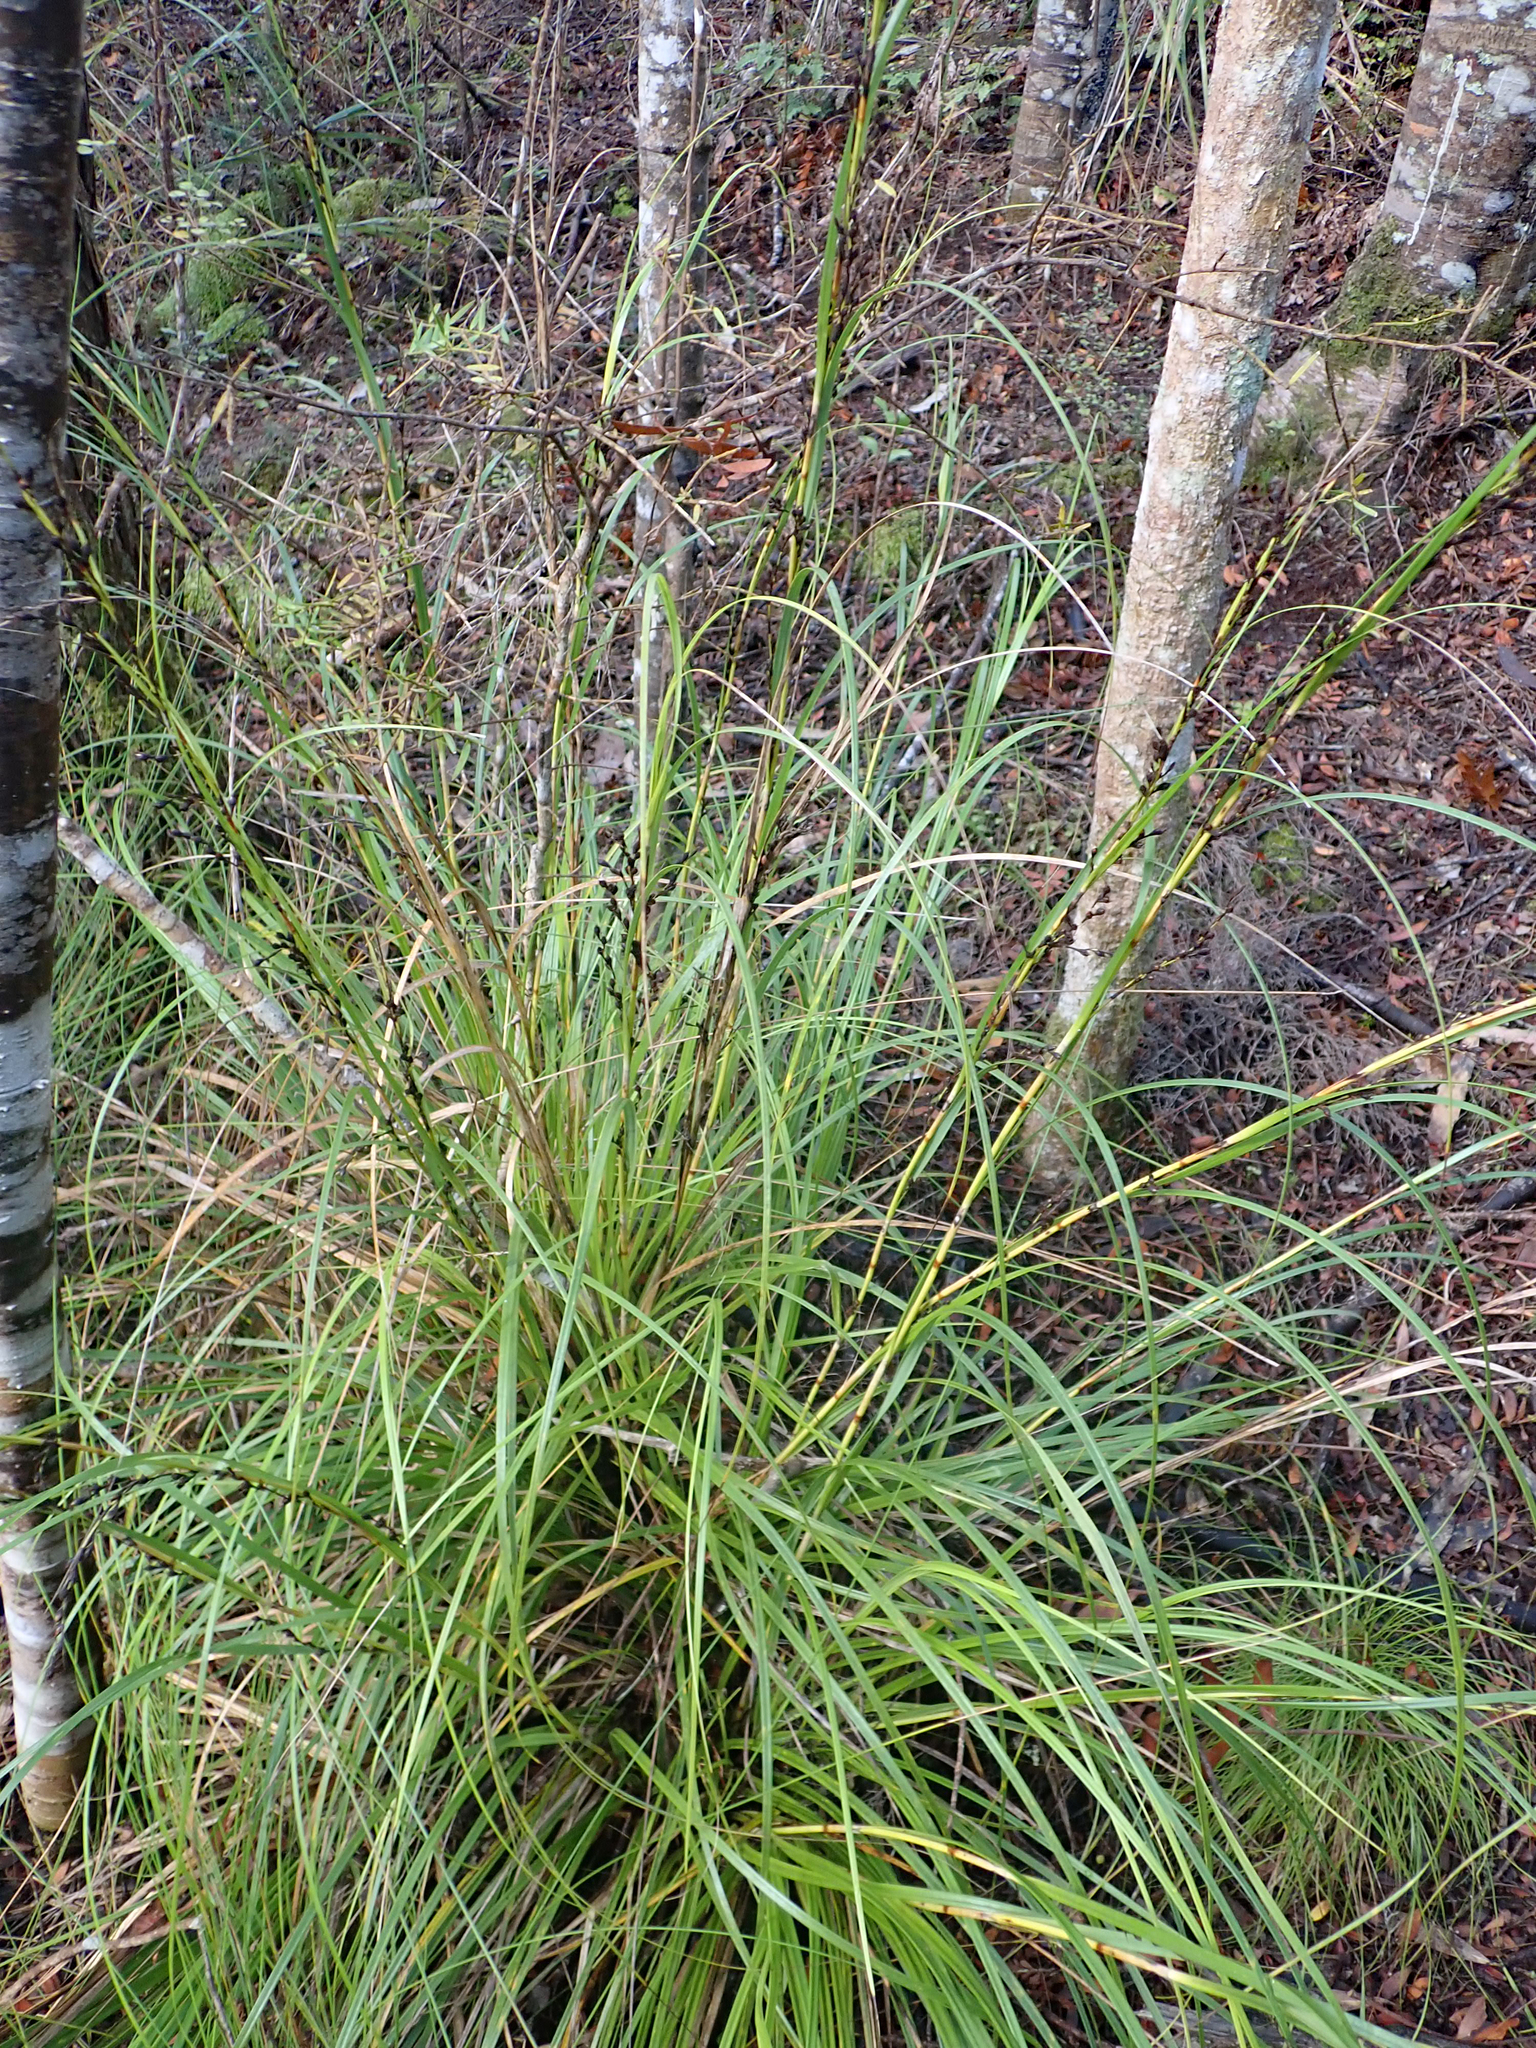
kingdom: Plantae
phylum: Tracheophyta
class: Liliopsida
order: Poales
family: Cyperaceae
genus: Gahnia
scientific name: Gahnia pauciflora
